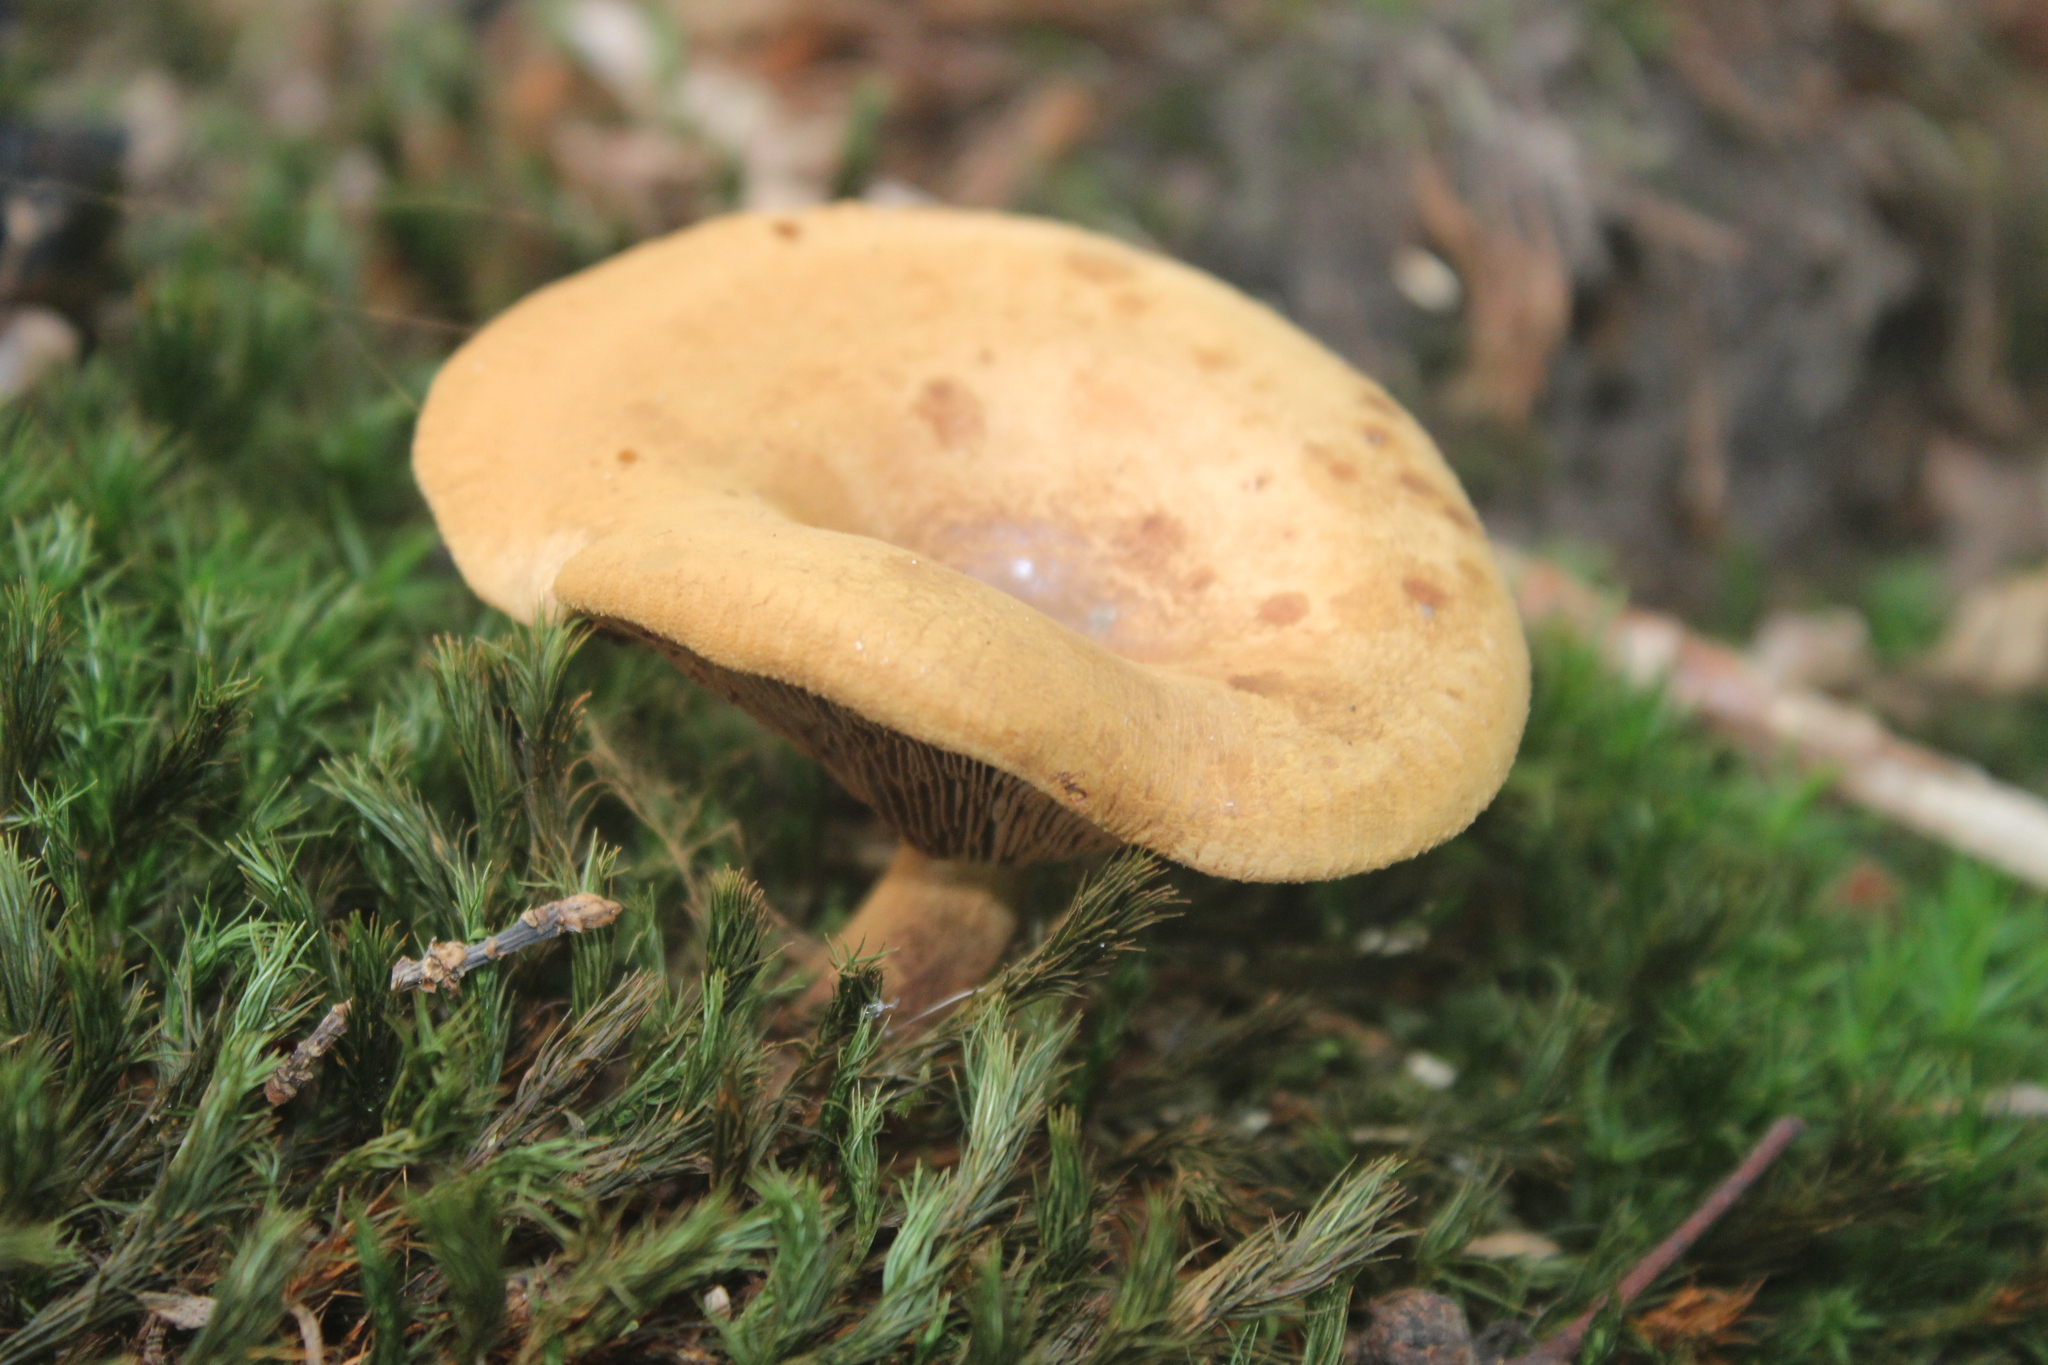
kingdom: Fungi
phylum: Basidiomycota
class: Agaricomycetes
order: Boletales
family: Paxillaceae
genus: Paxillus
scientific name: Paxillus involutus
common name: Brown roll rim
